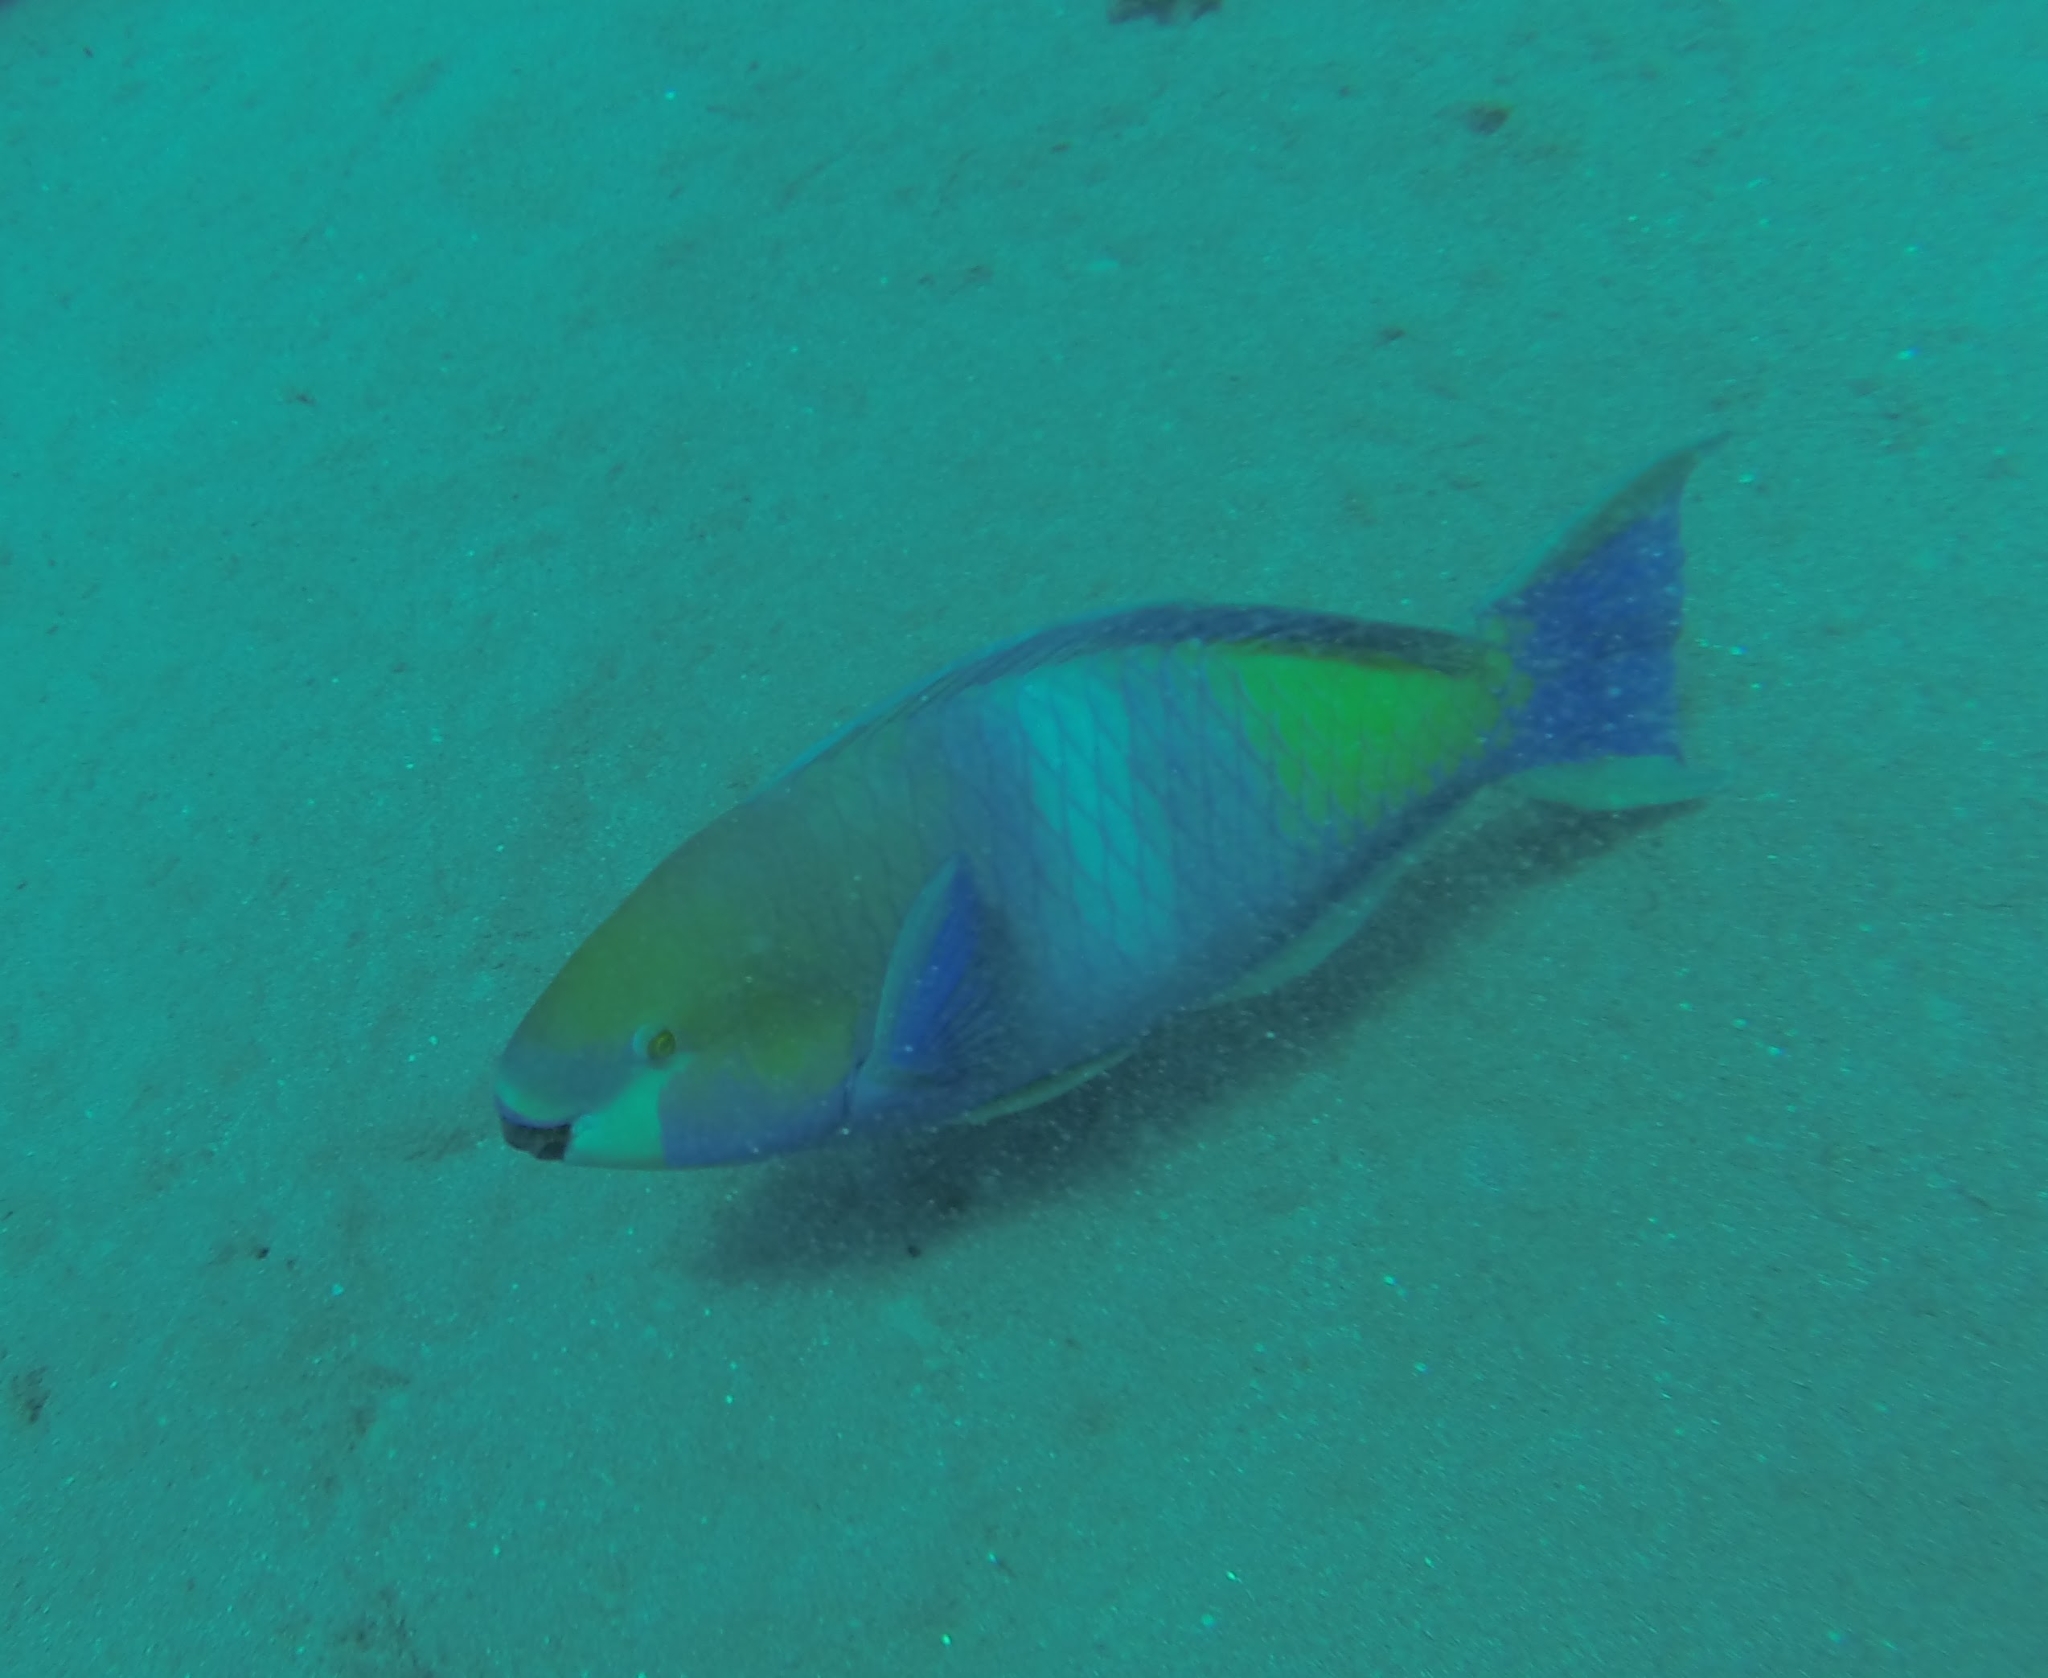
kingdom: Animalia
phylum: Chordata
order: Perciformes
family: Scaridae
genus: Scarus
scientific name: Scarus ferrugineus
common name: Rusty parrotfish
